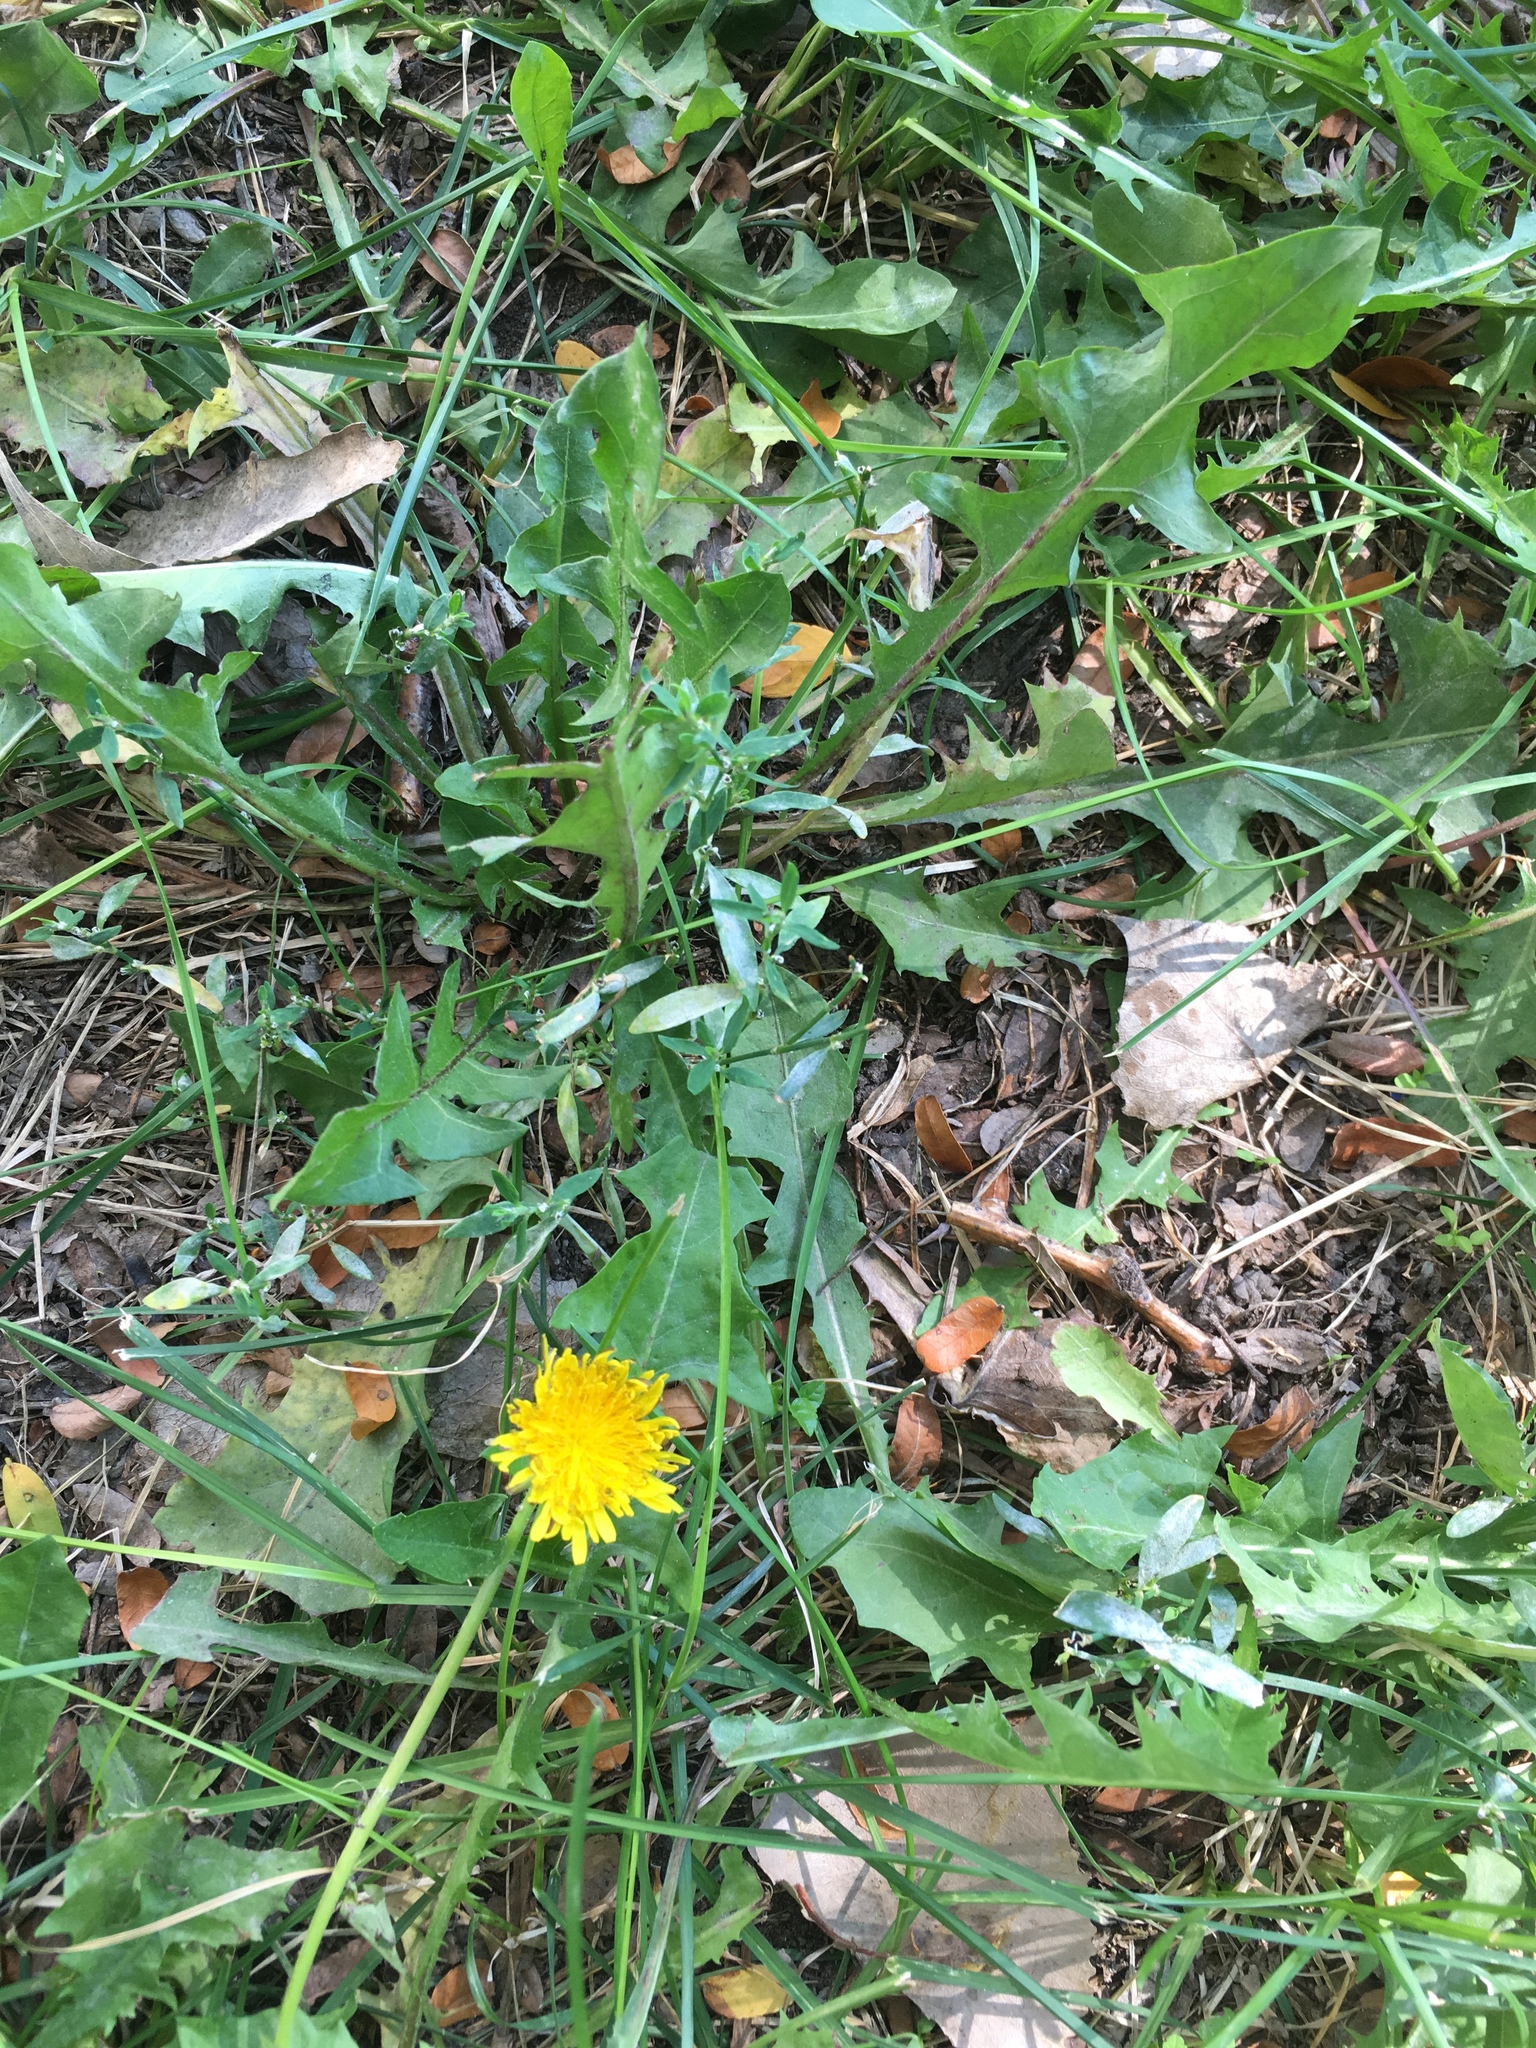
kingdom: Plantae
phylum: Tracheophyta
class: Magnoliopsida
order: Asterales
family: Asteraceae
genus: Taraxacum
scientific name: Taraxacum
